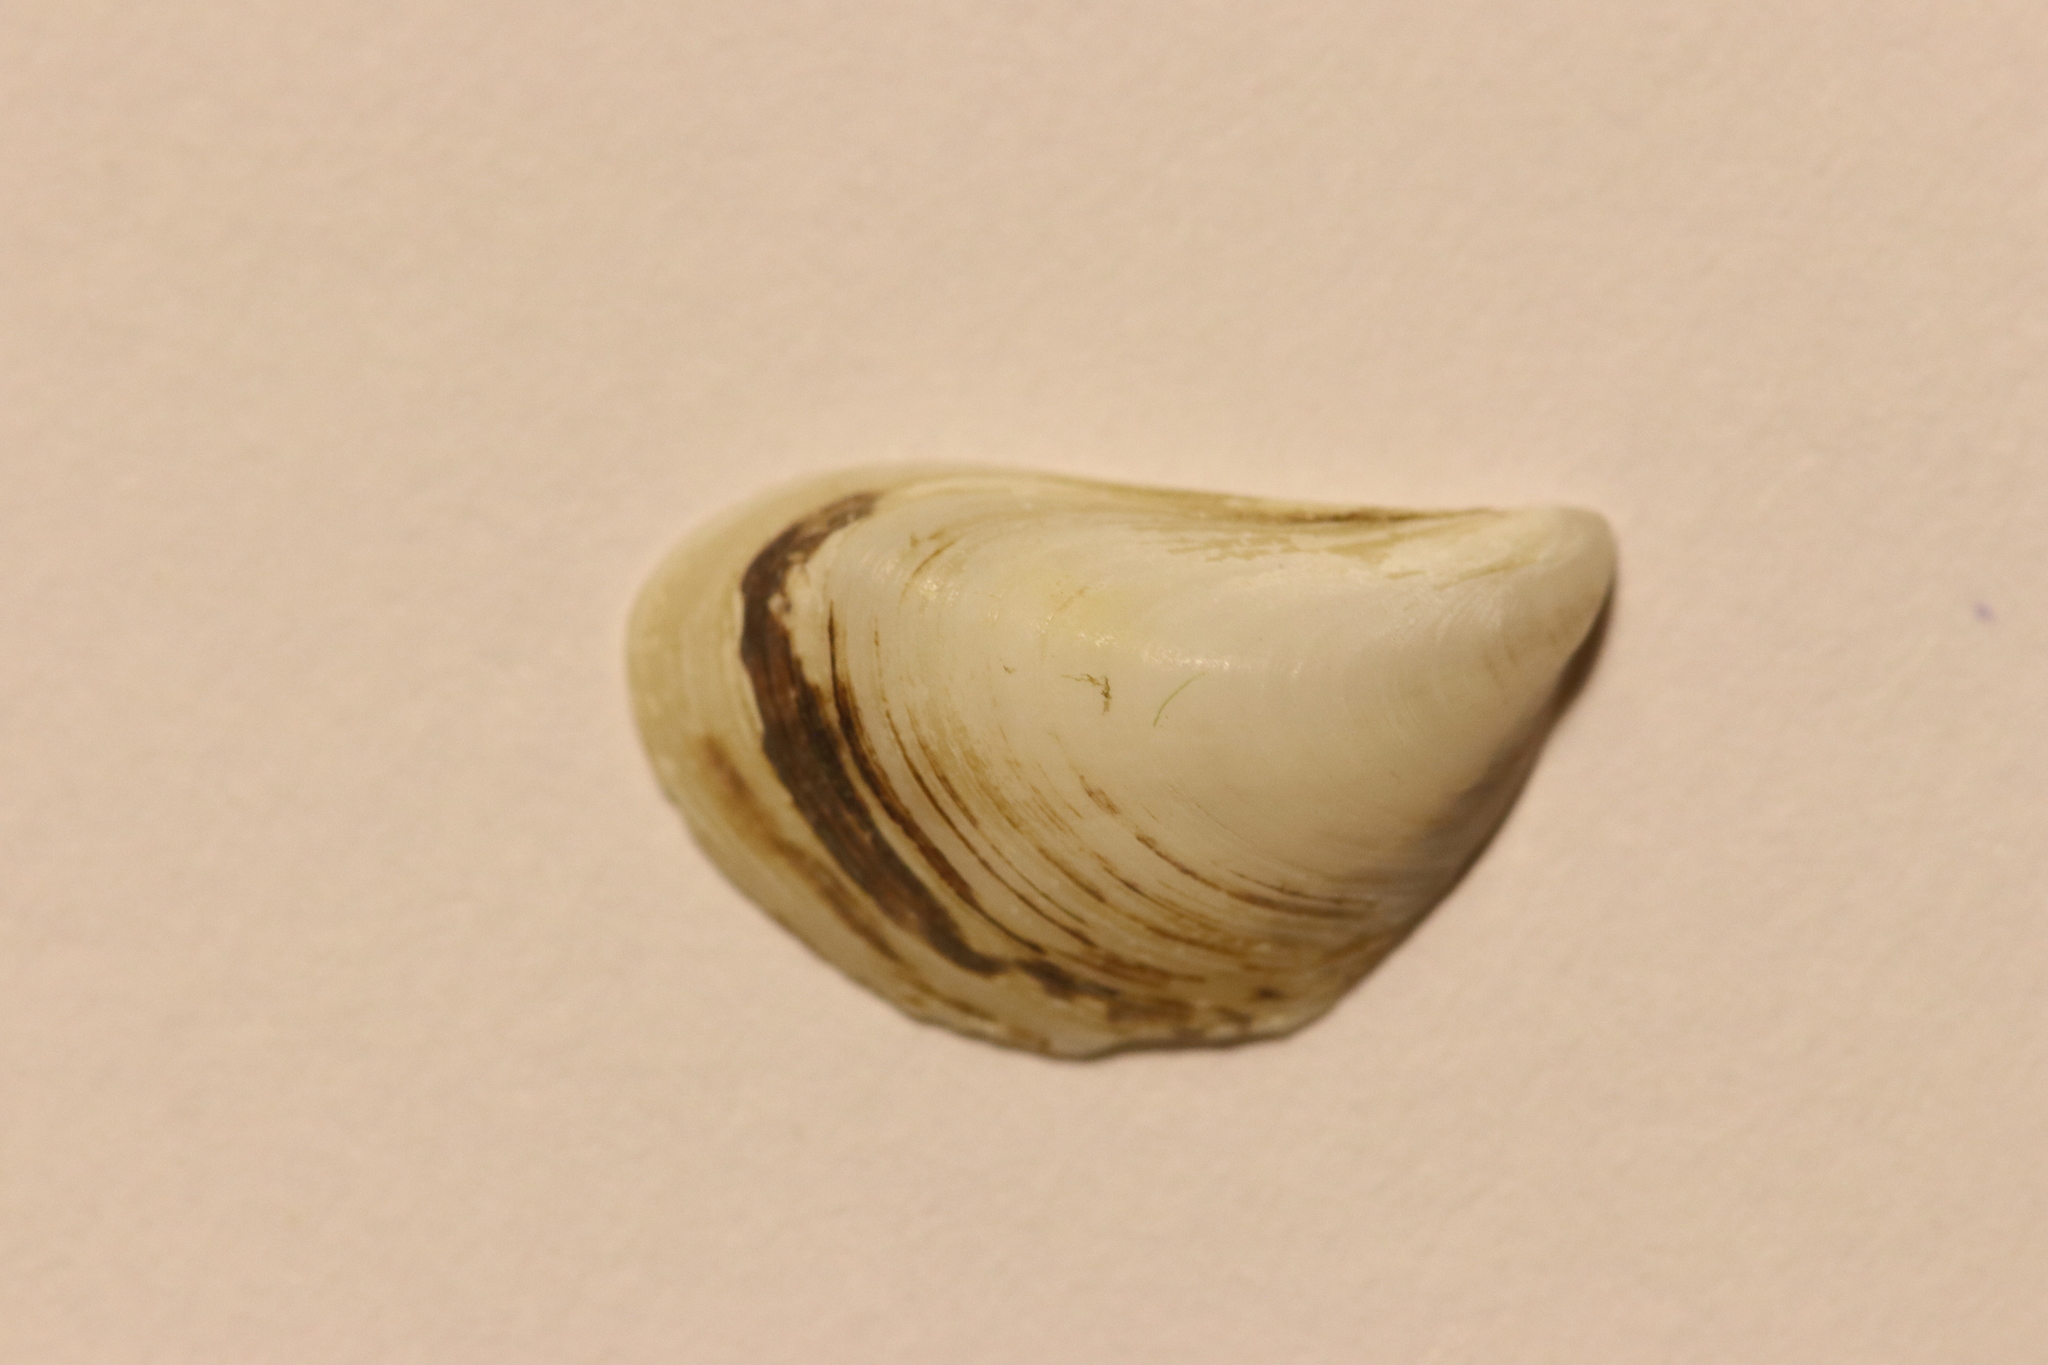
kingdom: Animalia
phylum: Mollusca
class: Bivalvia
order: Myida
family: Dreissenidae
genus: Dreissena
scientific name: Dreissena bugensis
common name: Quagga mussel
